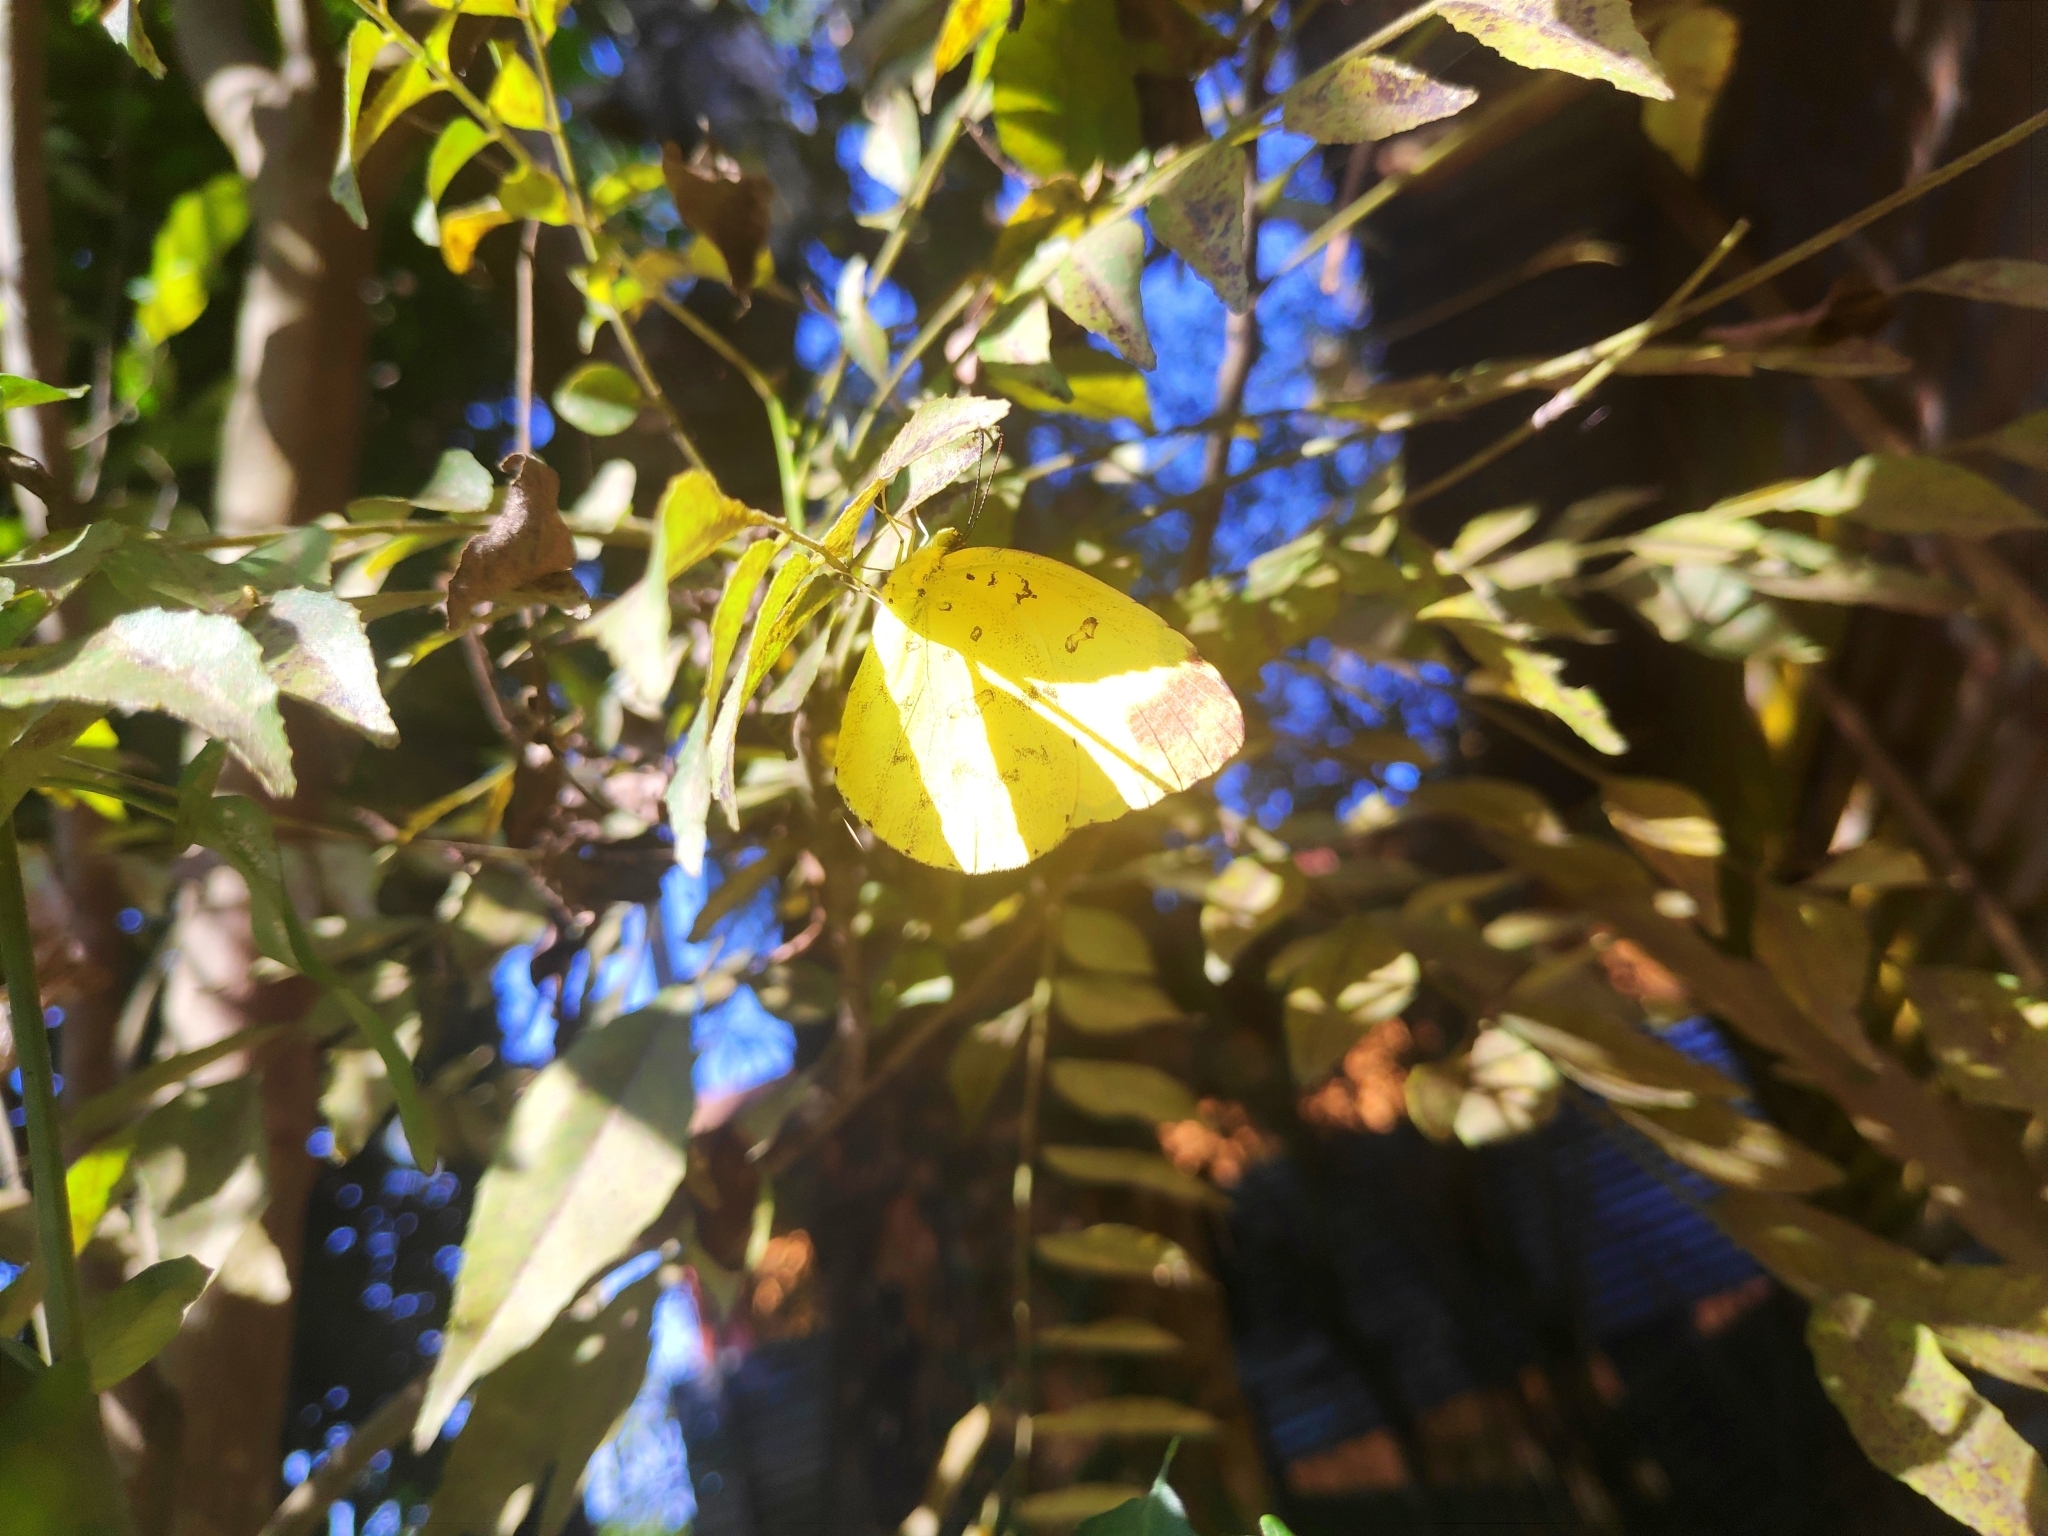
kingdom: Animalia
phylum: Arthropoda
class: Insecta
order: Lepidoptera
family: Pieridae
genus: Eurema
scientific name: Eurema blanda
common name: Three-spot grass yellow
